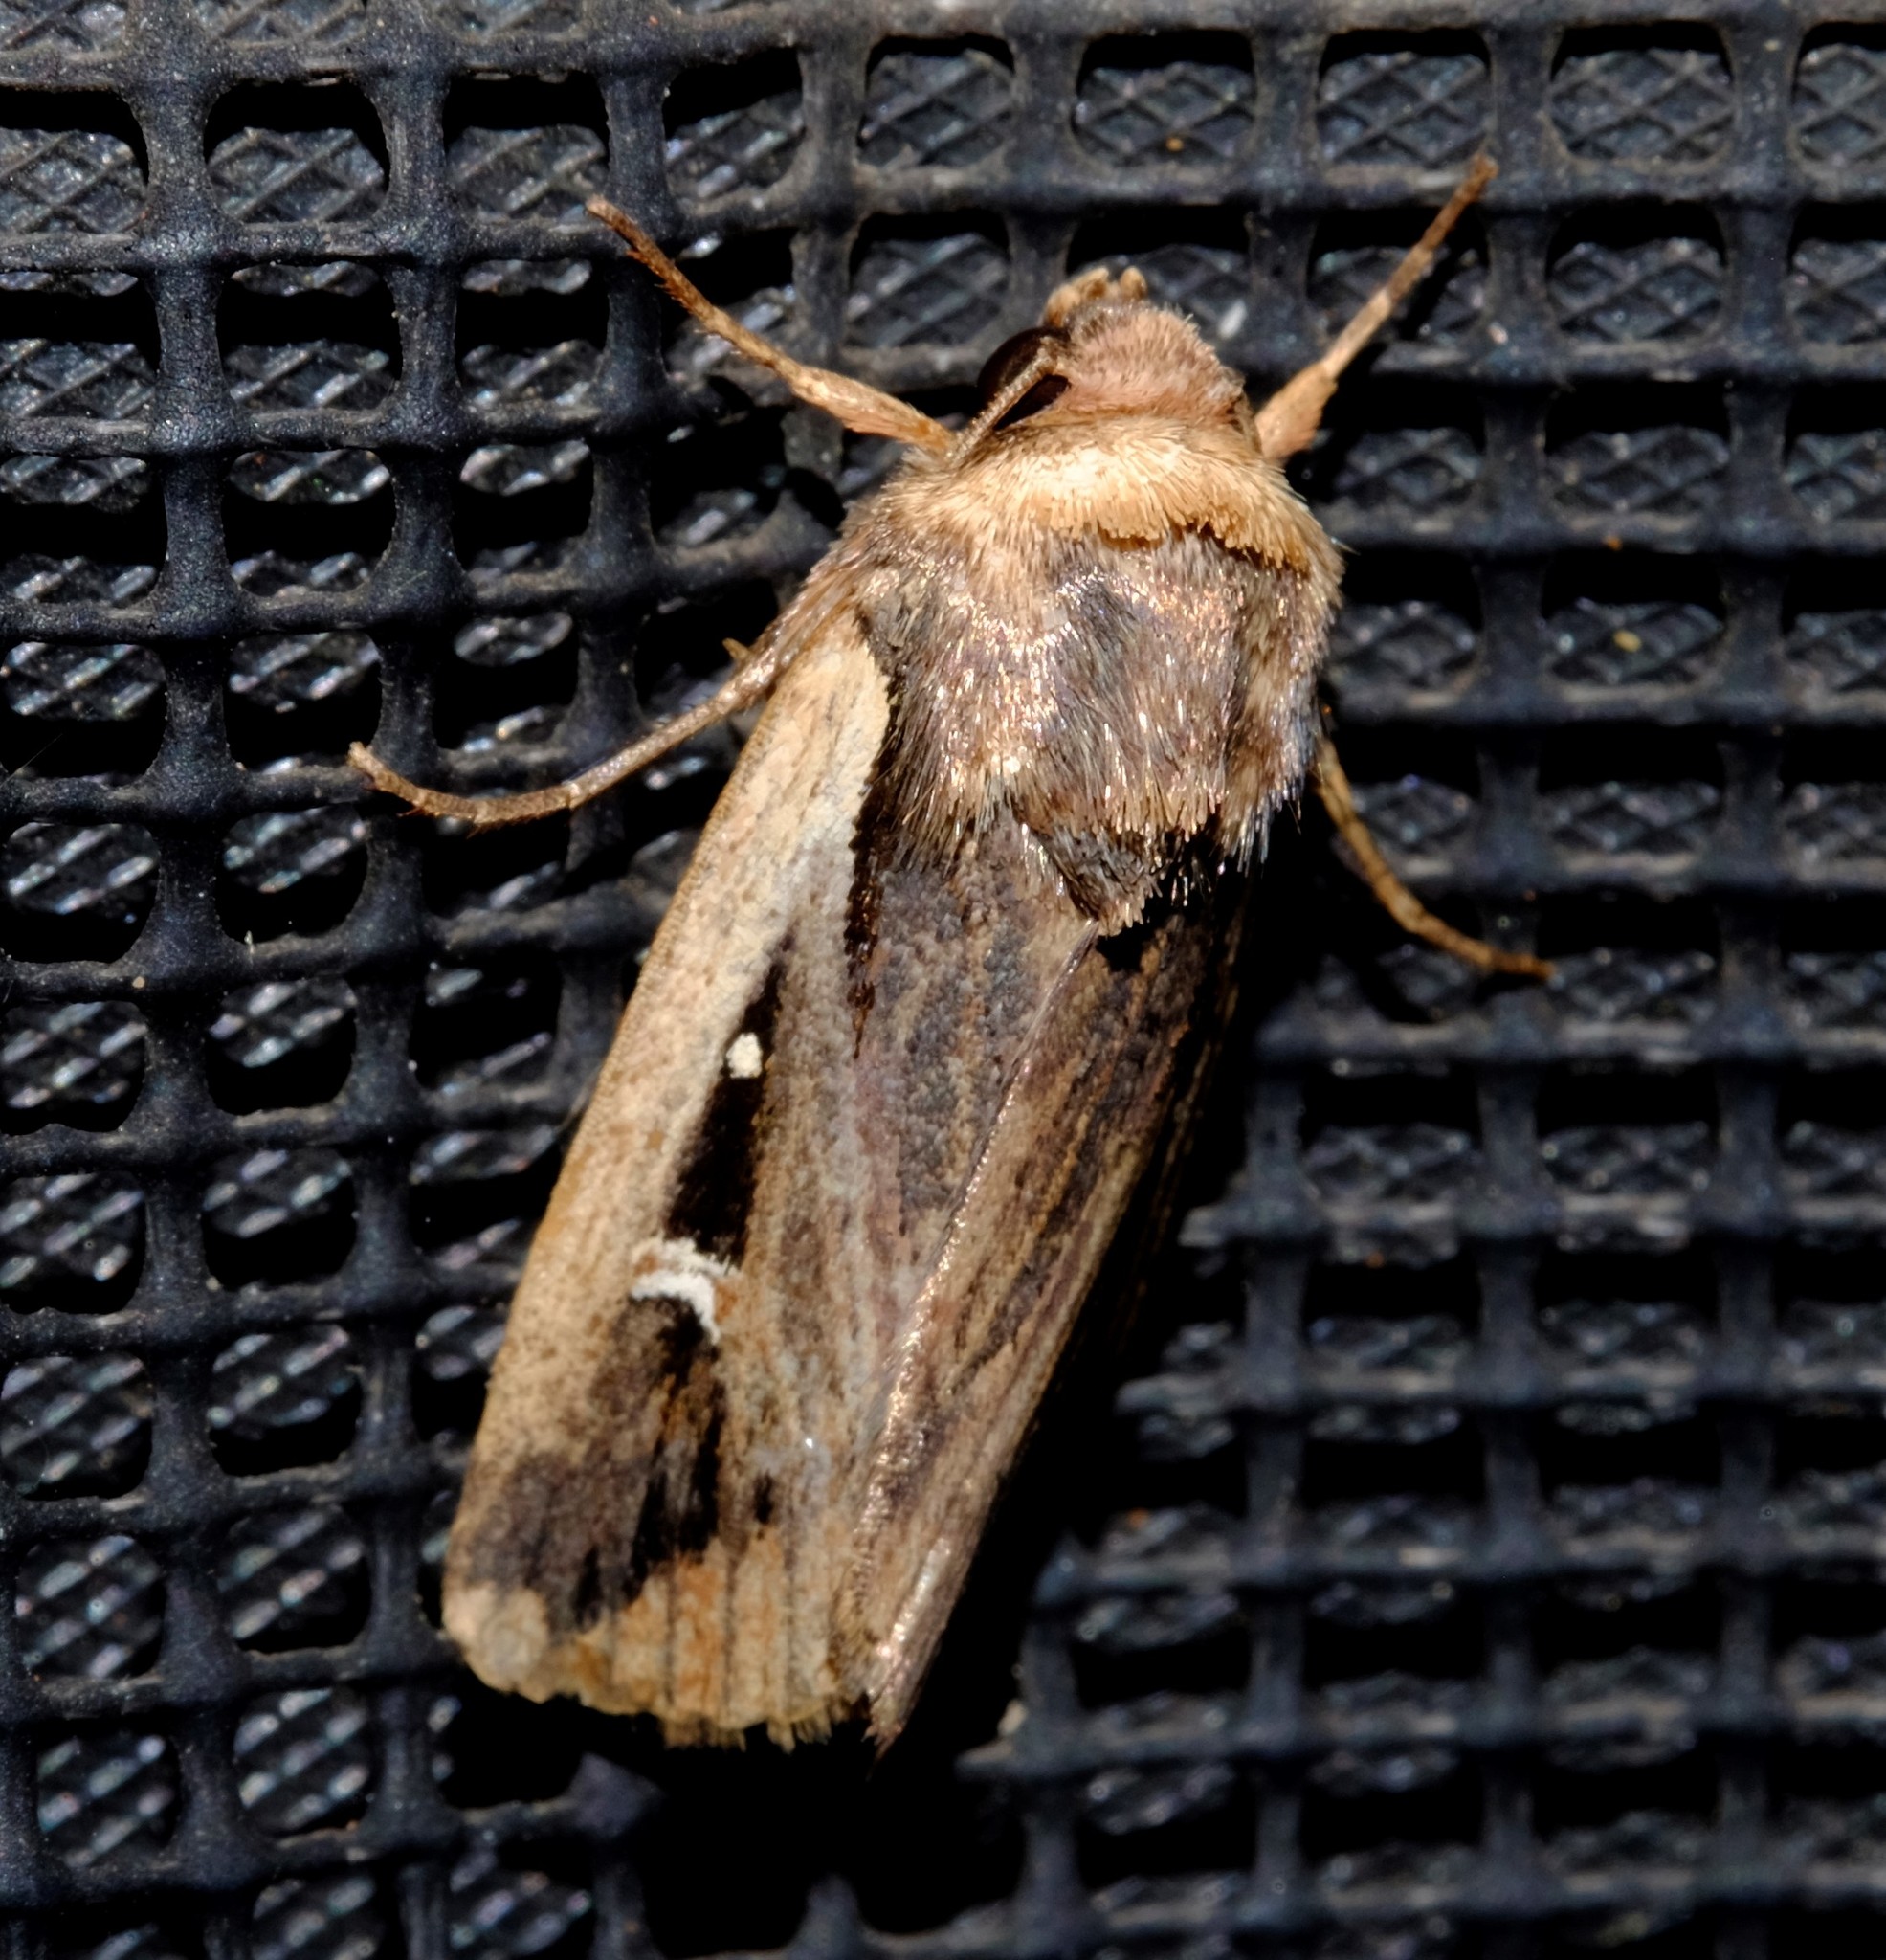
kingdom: Animalia
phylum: Arthropoda
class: Insecta
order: Lepidoptera
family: Noctuidae
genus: Proteuxoa
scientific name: Proteuxoa tortisigna
